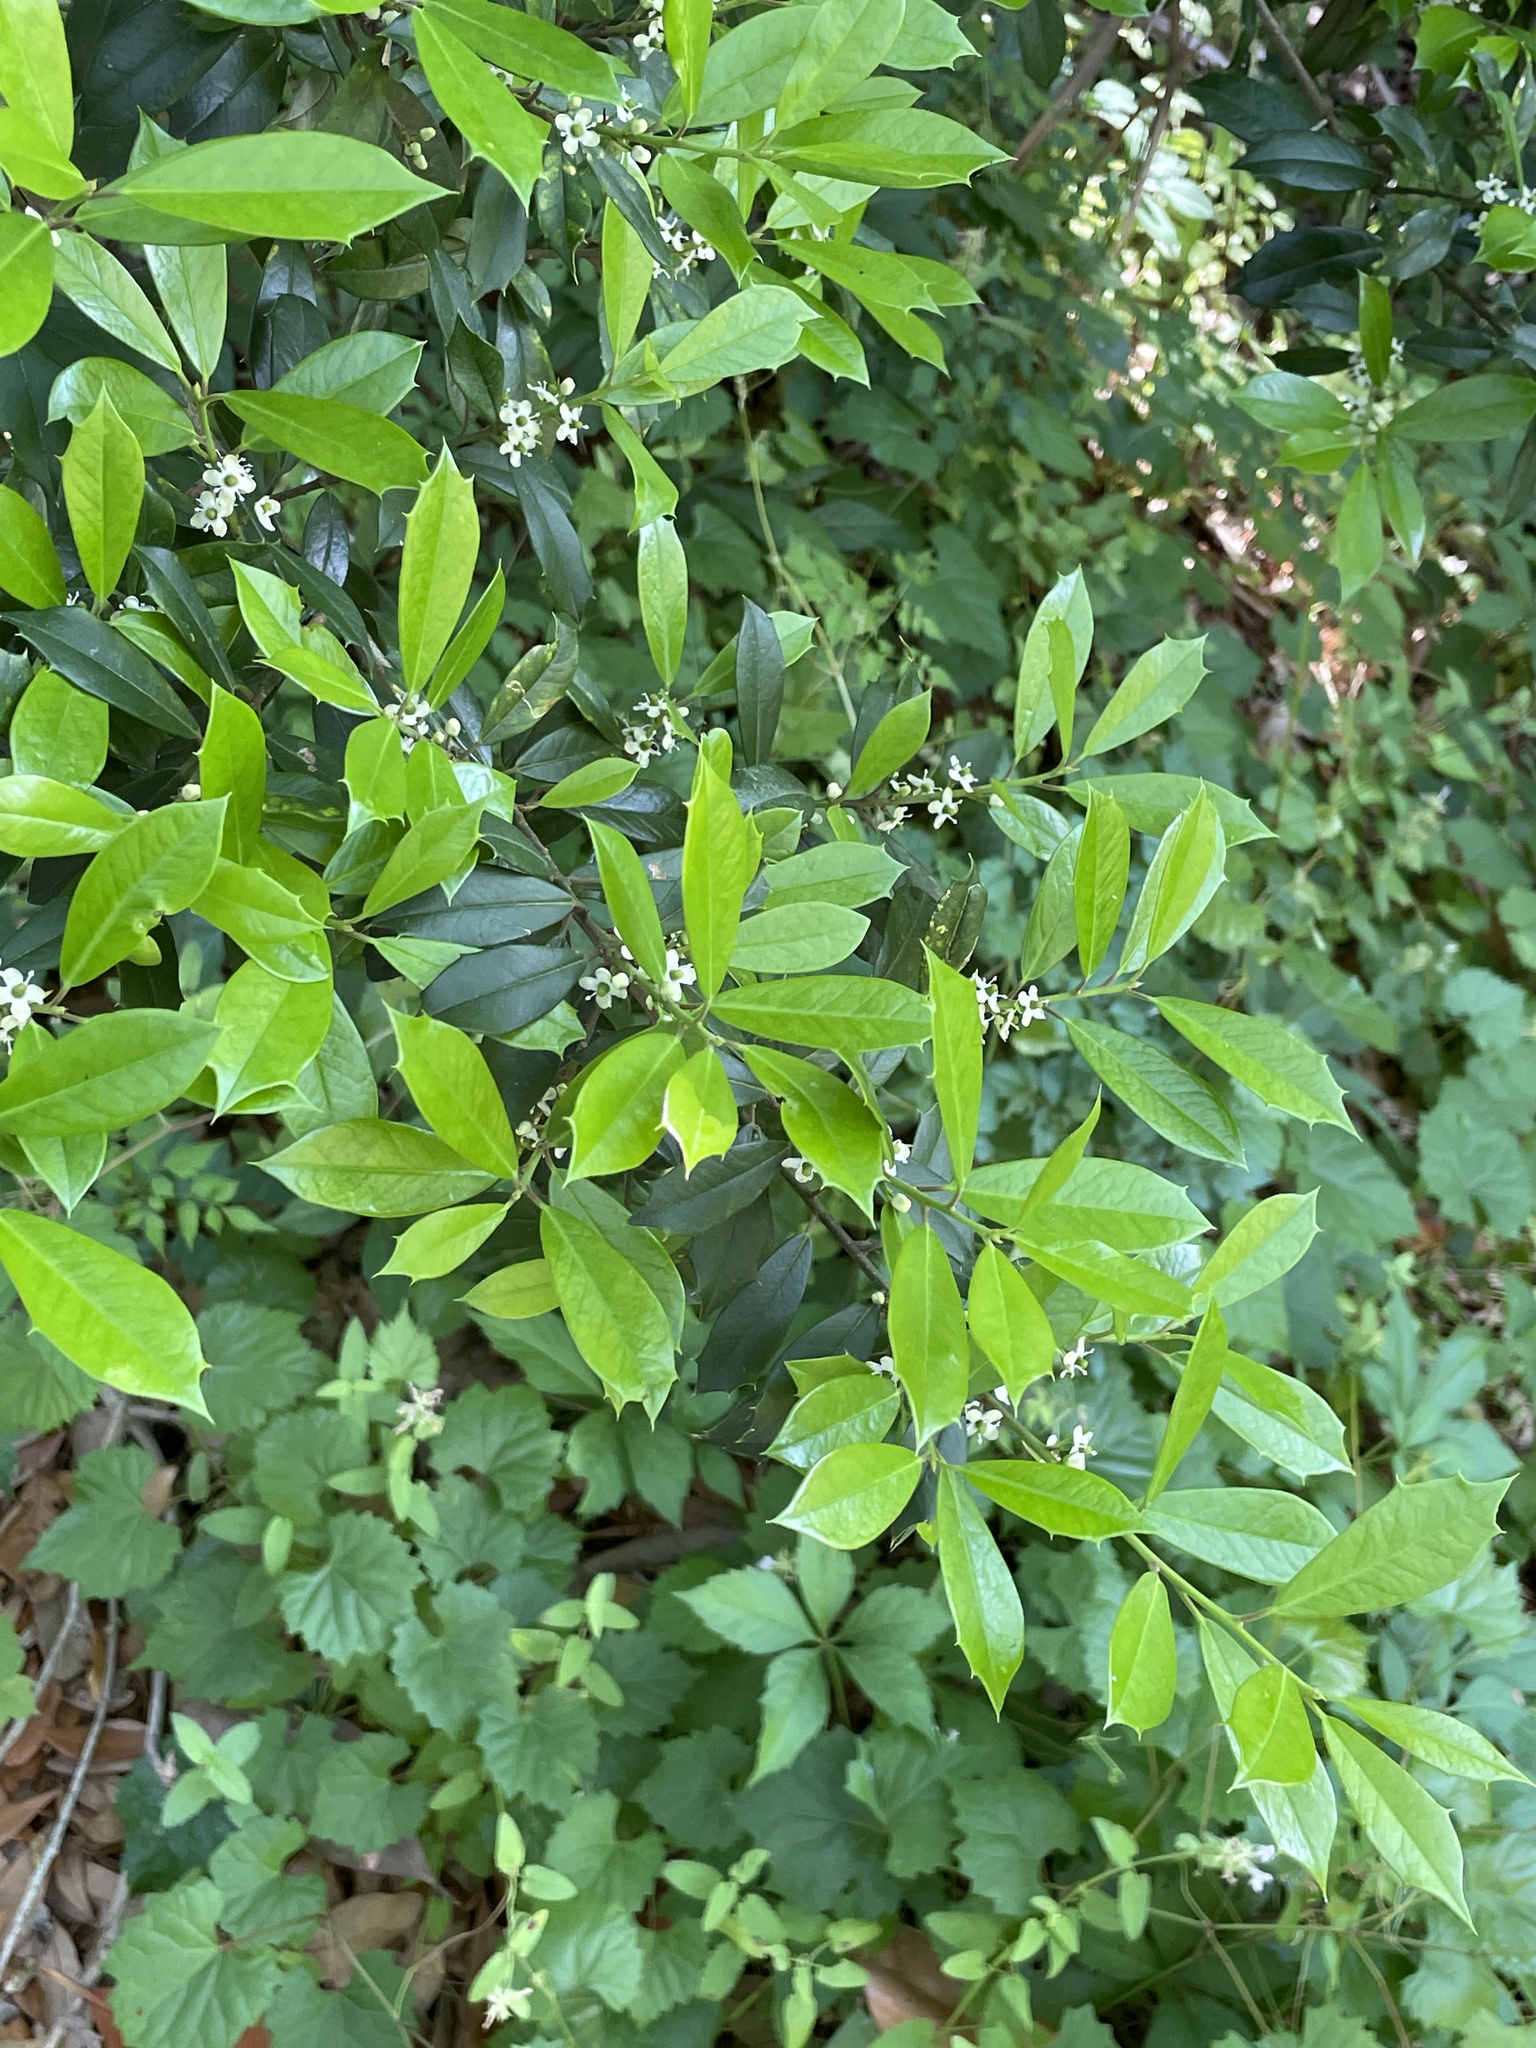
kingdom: Plantae
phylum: Tracheophyta
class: Magnoliopsida
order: Aquifoliales
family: Aquifoliaceae
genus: Ilex
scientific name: Ilex opaca
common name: American holly
